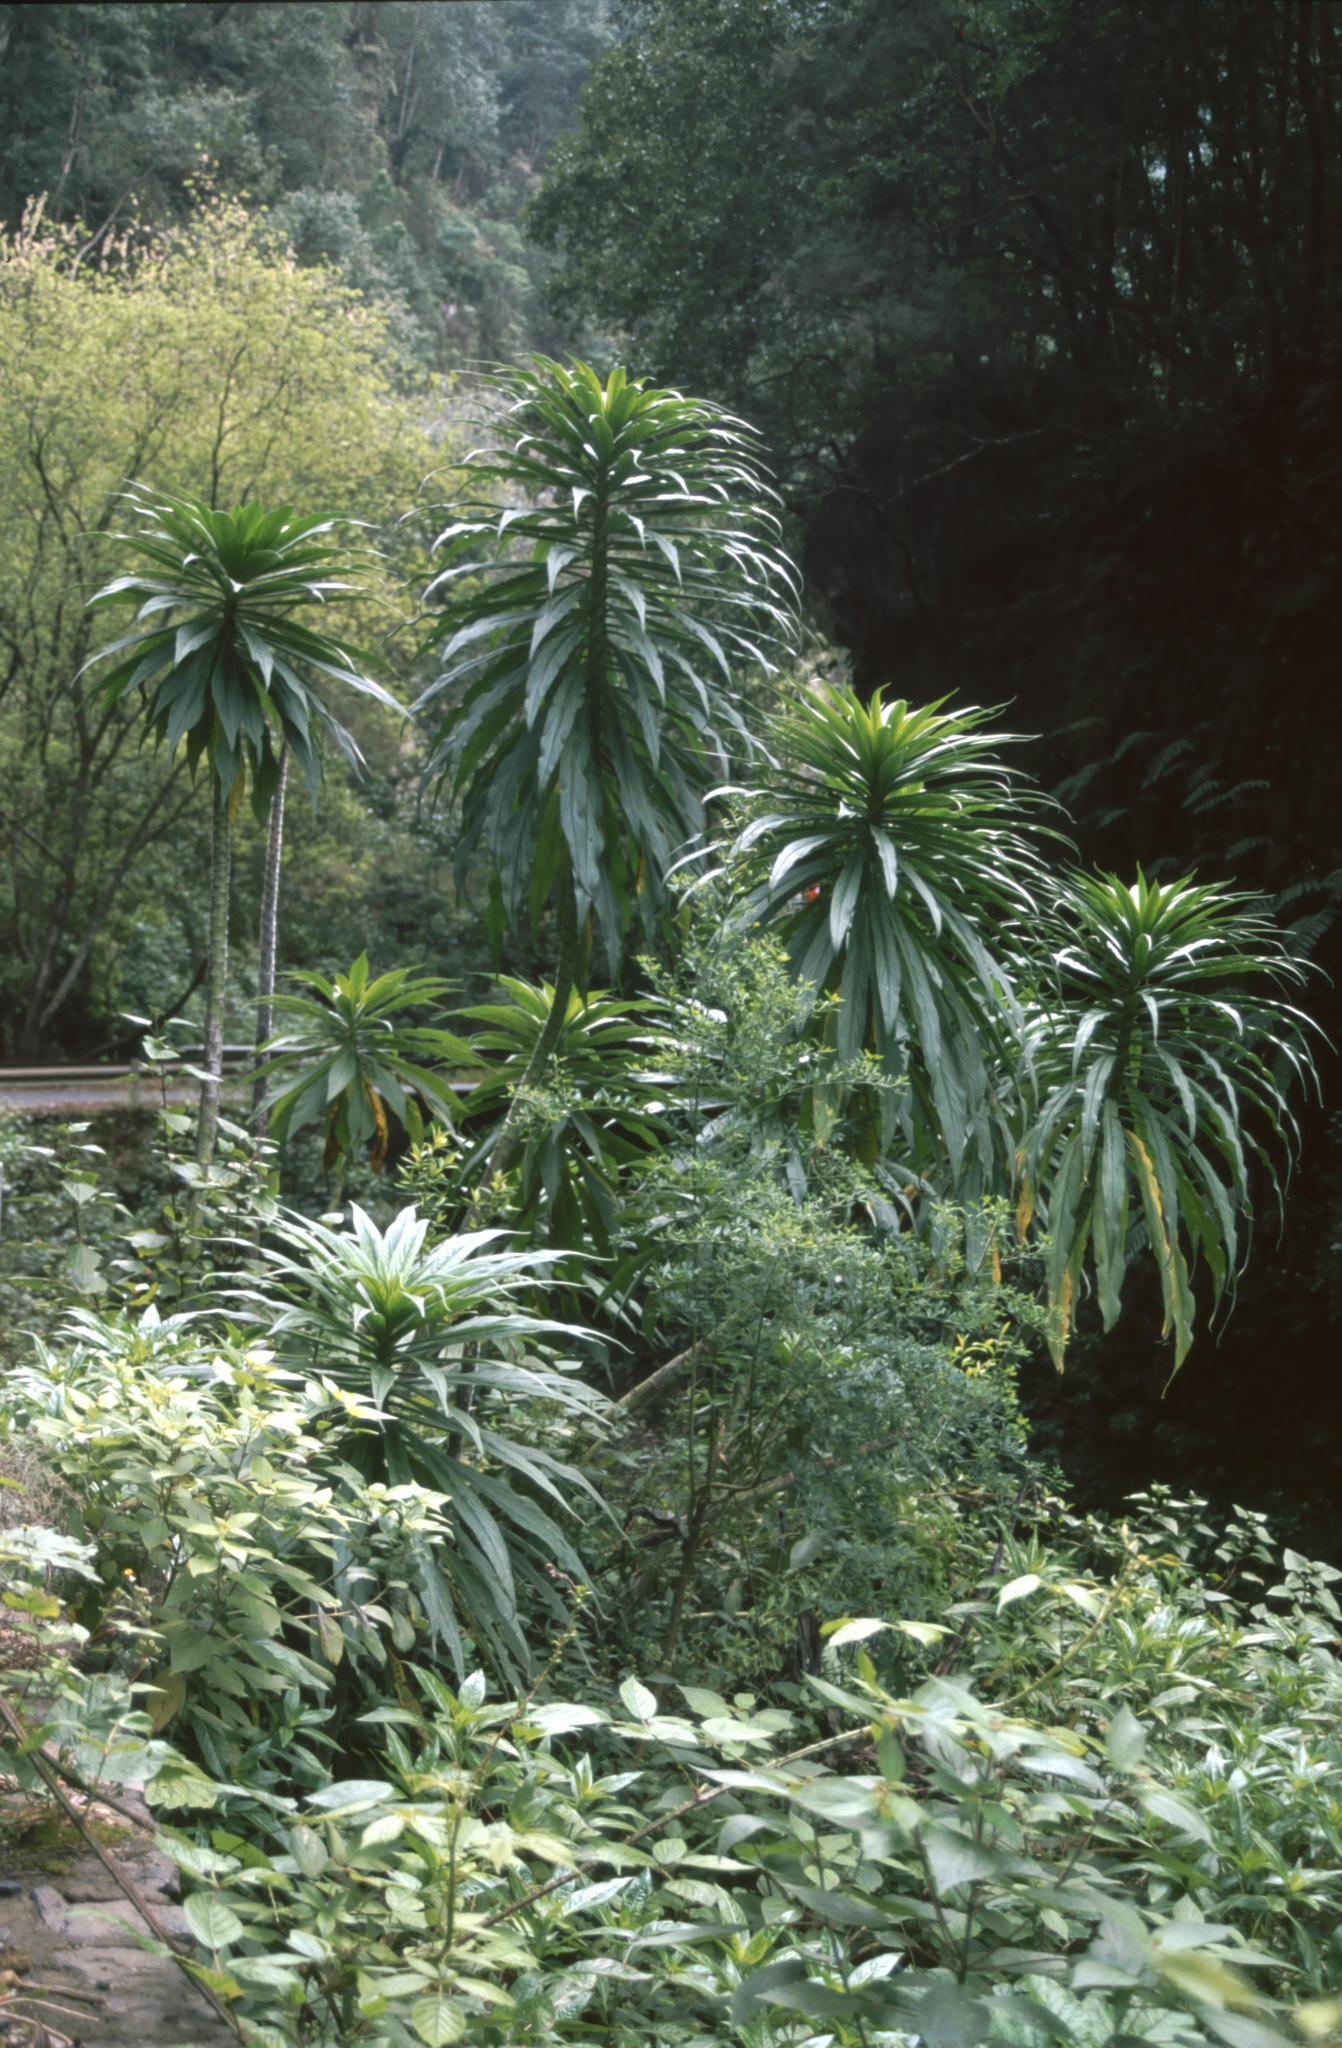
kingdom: Plantae
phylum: Tracheophyta
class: Magnoliopsida
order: Boraginales
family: Boraginaceae
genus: Echium
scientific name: Echium pininana
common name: Giant viper's-bugloss
